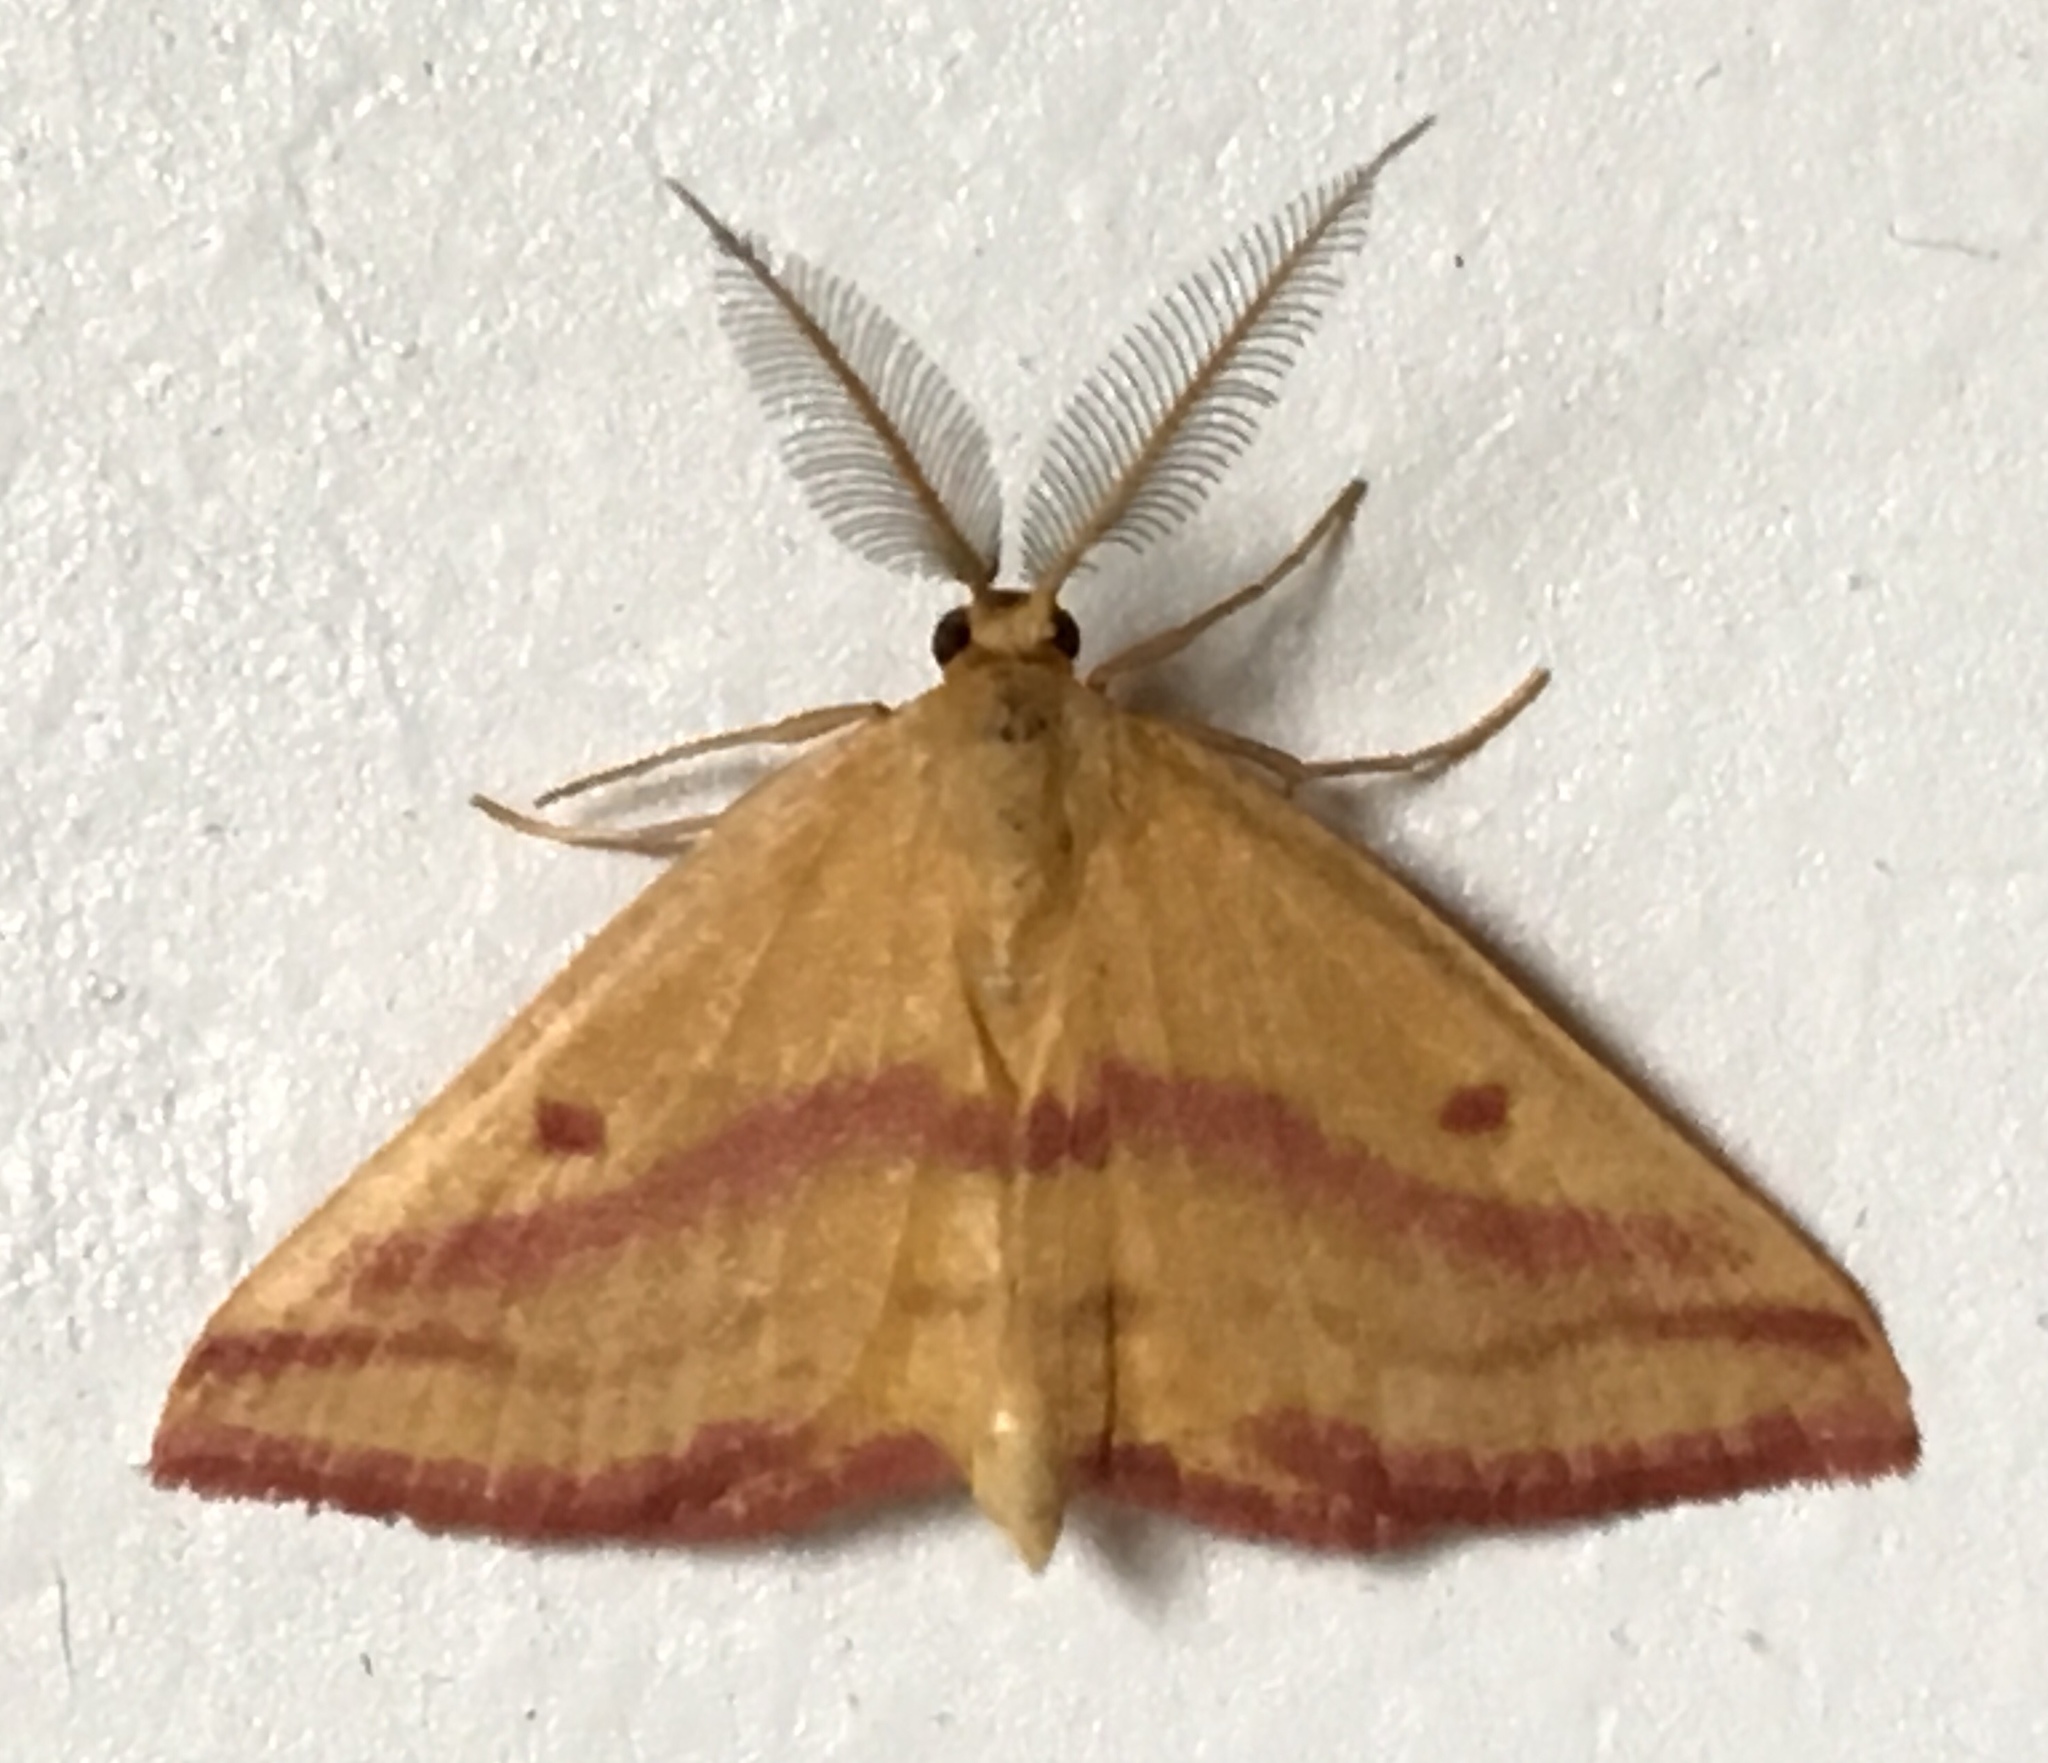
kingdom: Animalia
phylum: Arthropoda
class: Insecta
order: Lepidoptera
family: Geometridae
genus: Haematopis
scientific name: Haematopis grataria
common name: Chickweed geometer
